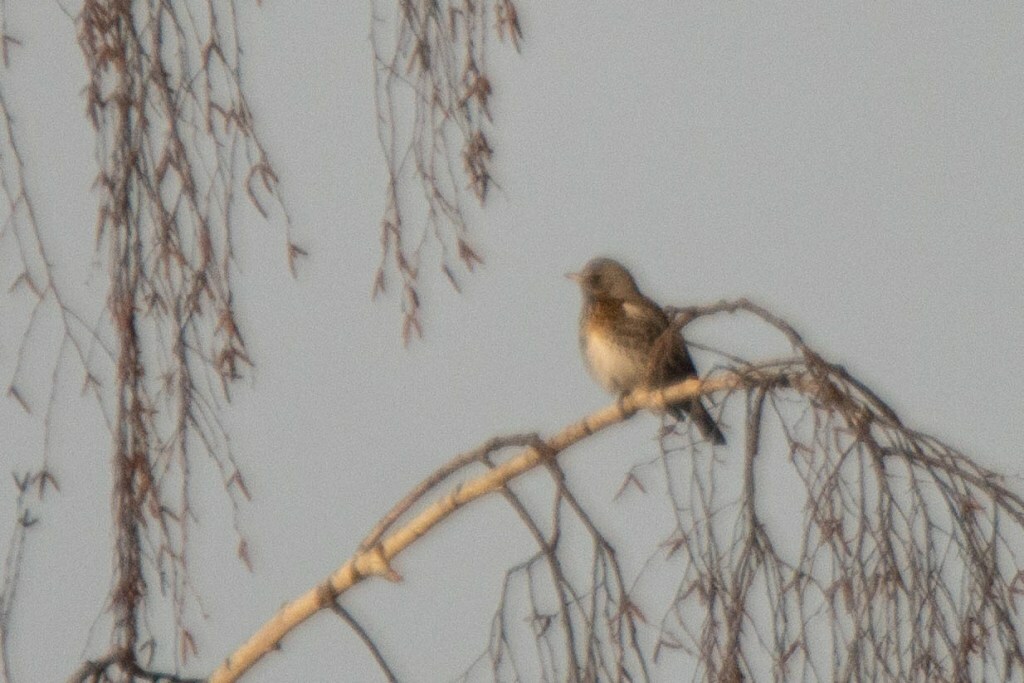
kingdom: Animalia
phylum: Chordata
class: Aves
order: Passeriformes
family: Turdidae
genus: Turdus
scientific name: Turdus pilaris
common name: Fieldfare
